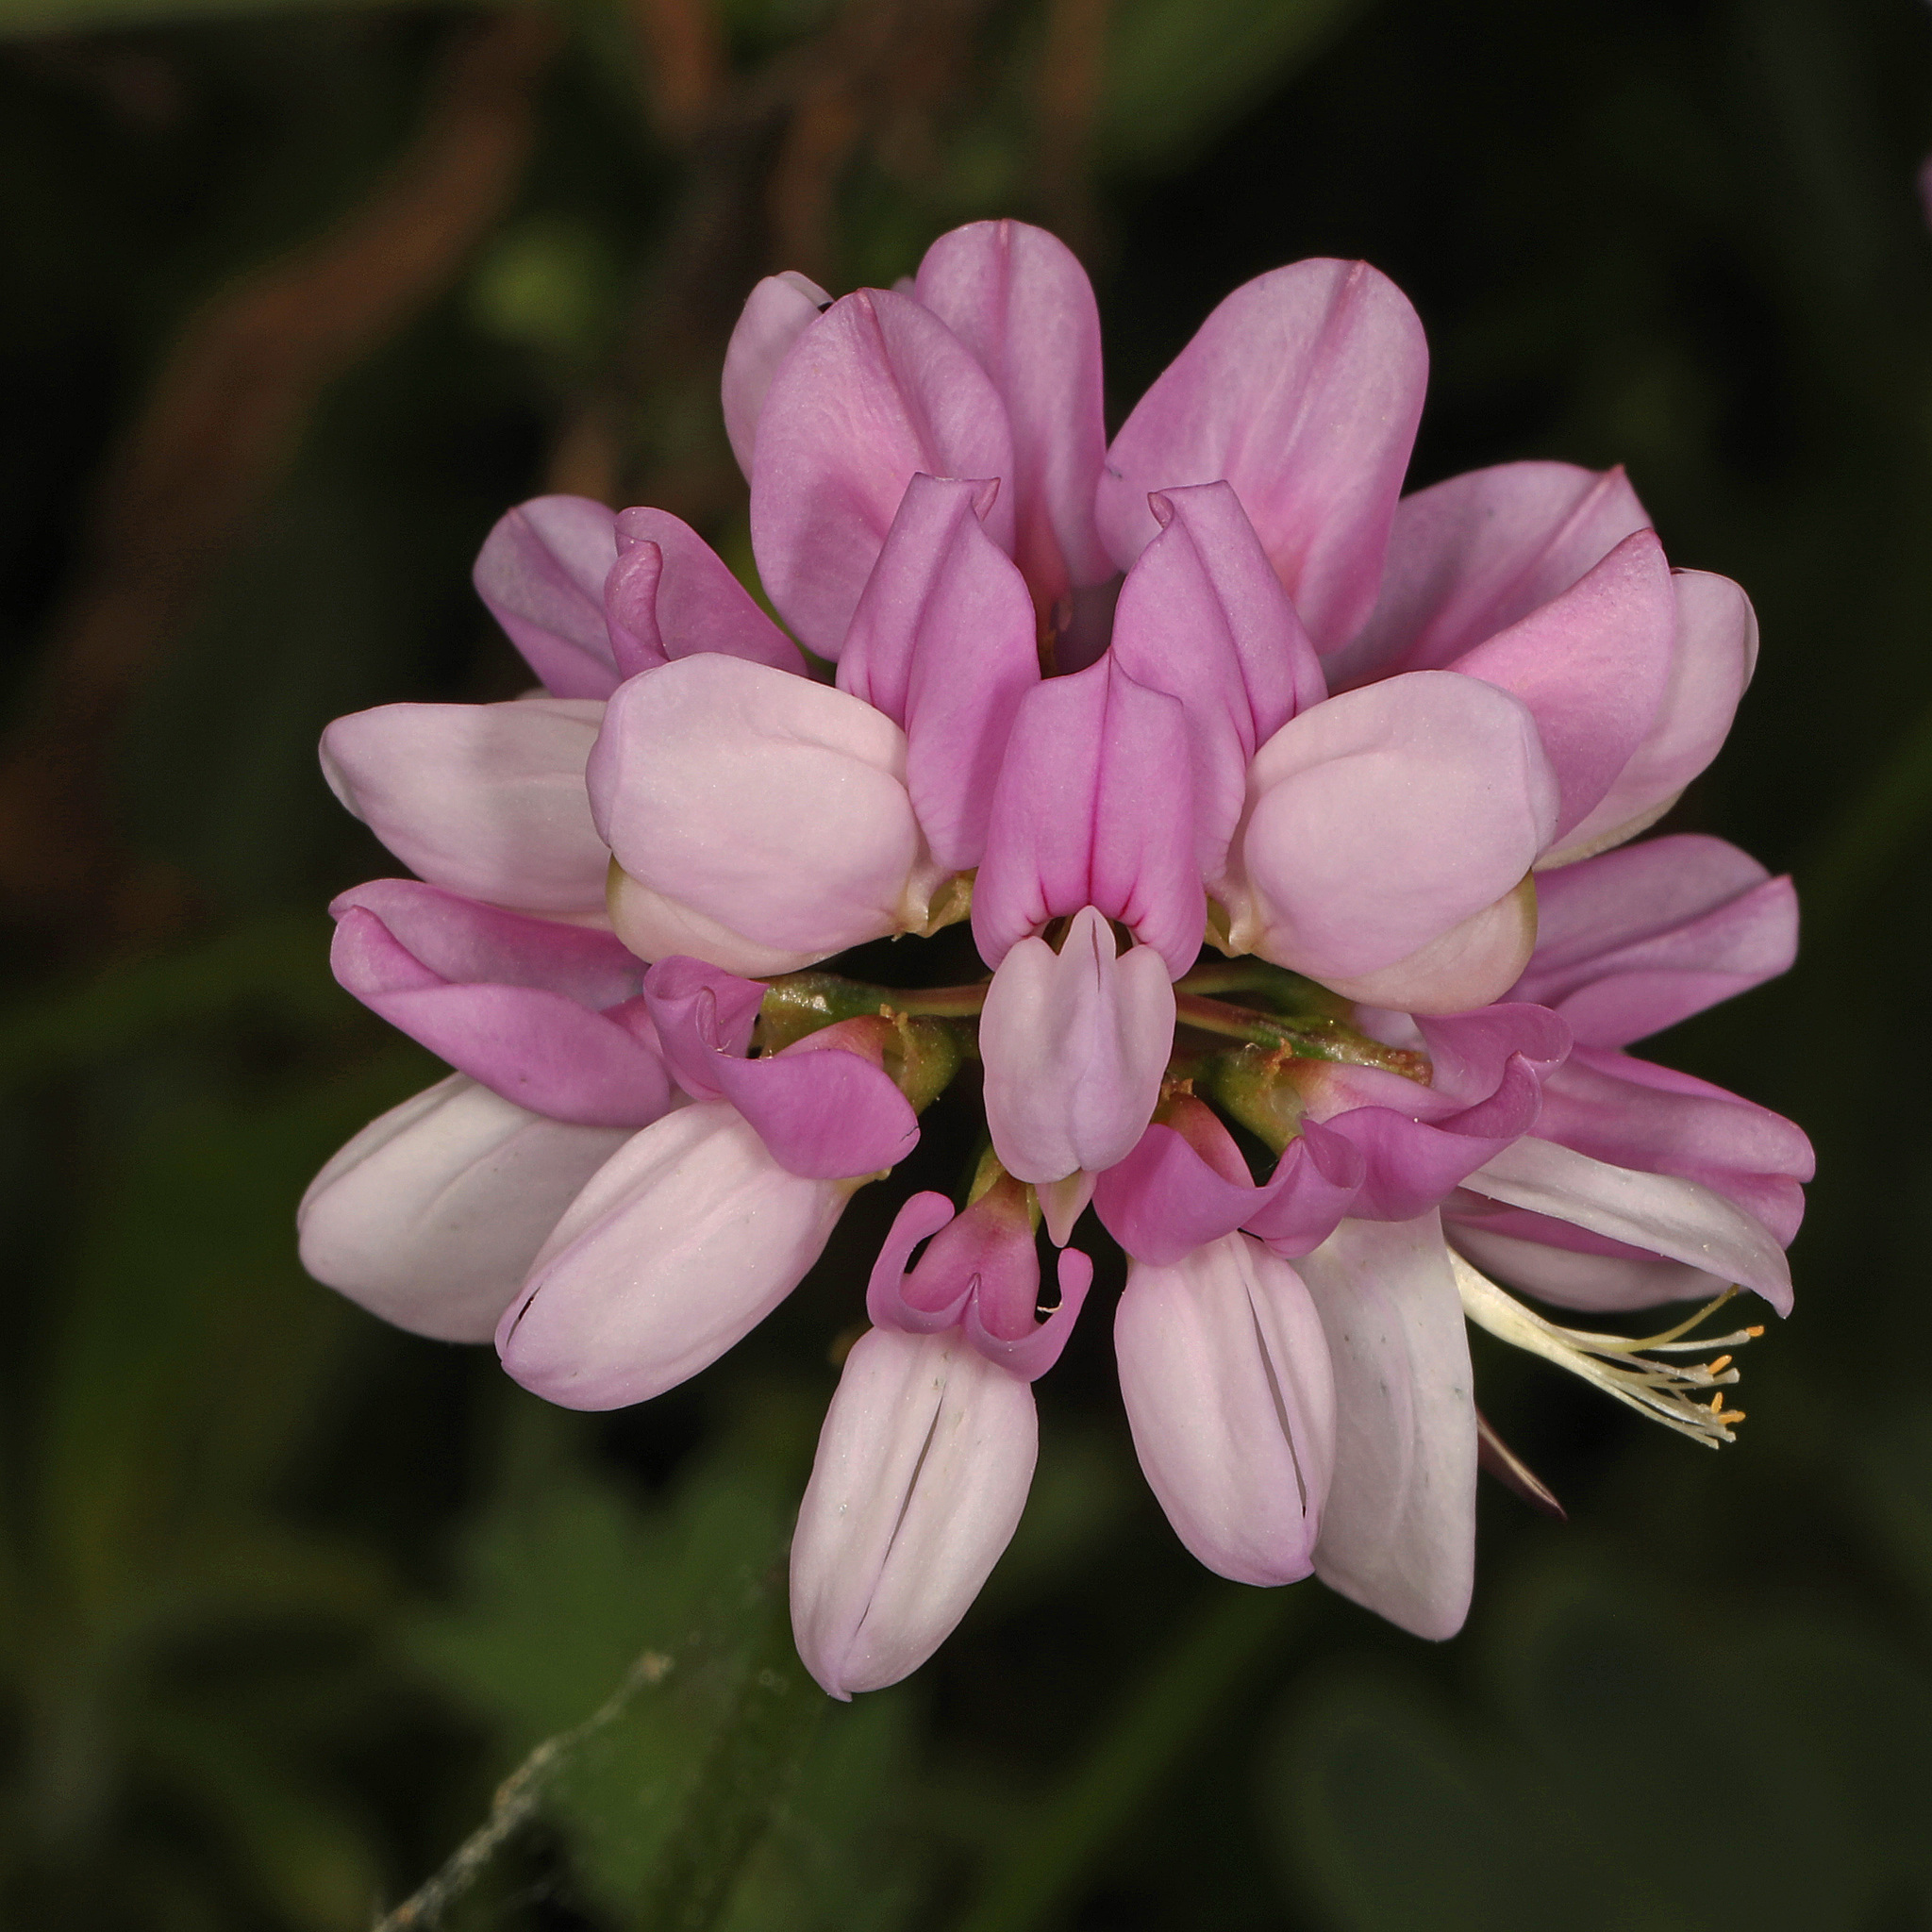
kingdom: Plantae
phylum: Tracheophyta
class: Magnoliopsida
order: Fabales
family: Fabaceae
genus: Coronilla
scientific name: Coronilla varia
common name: Crownvetch
